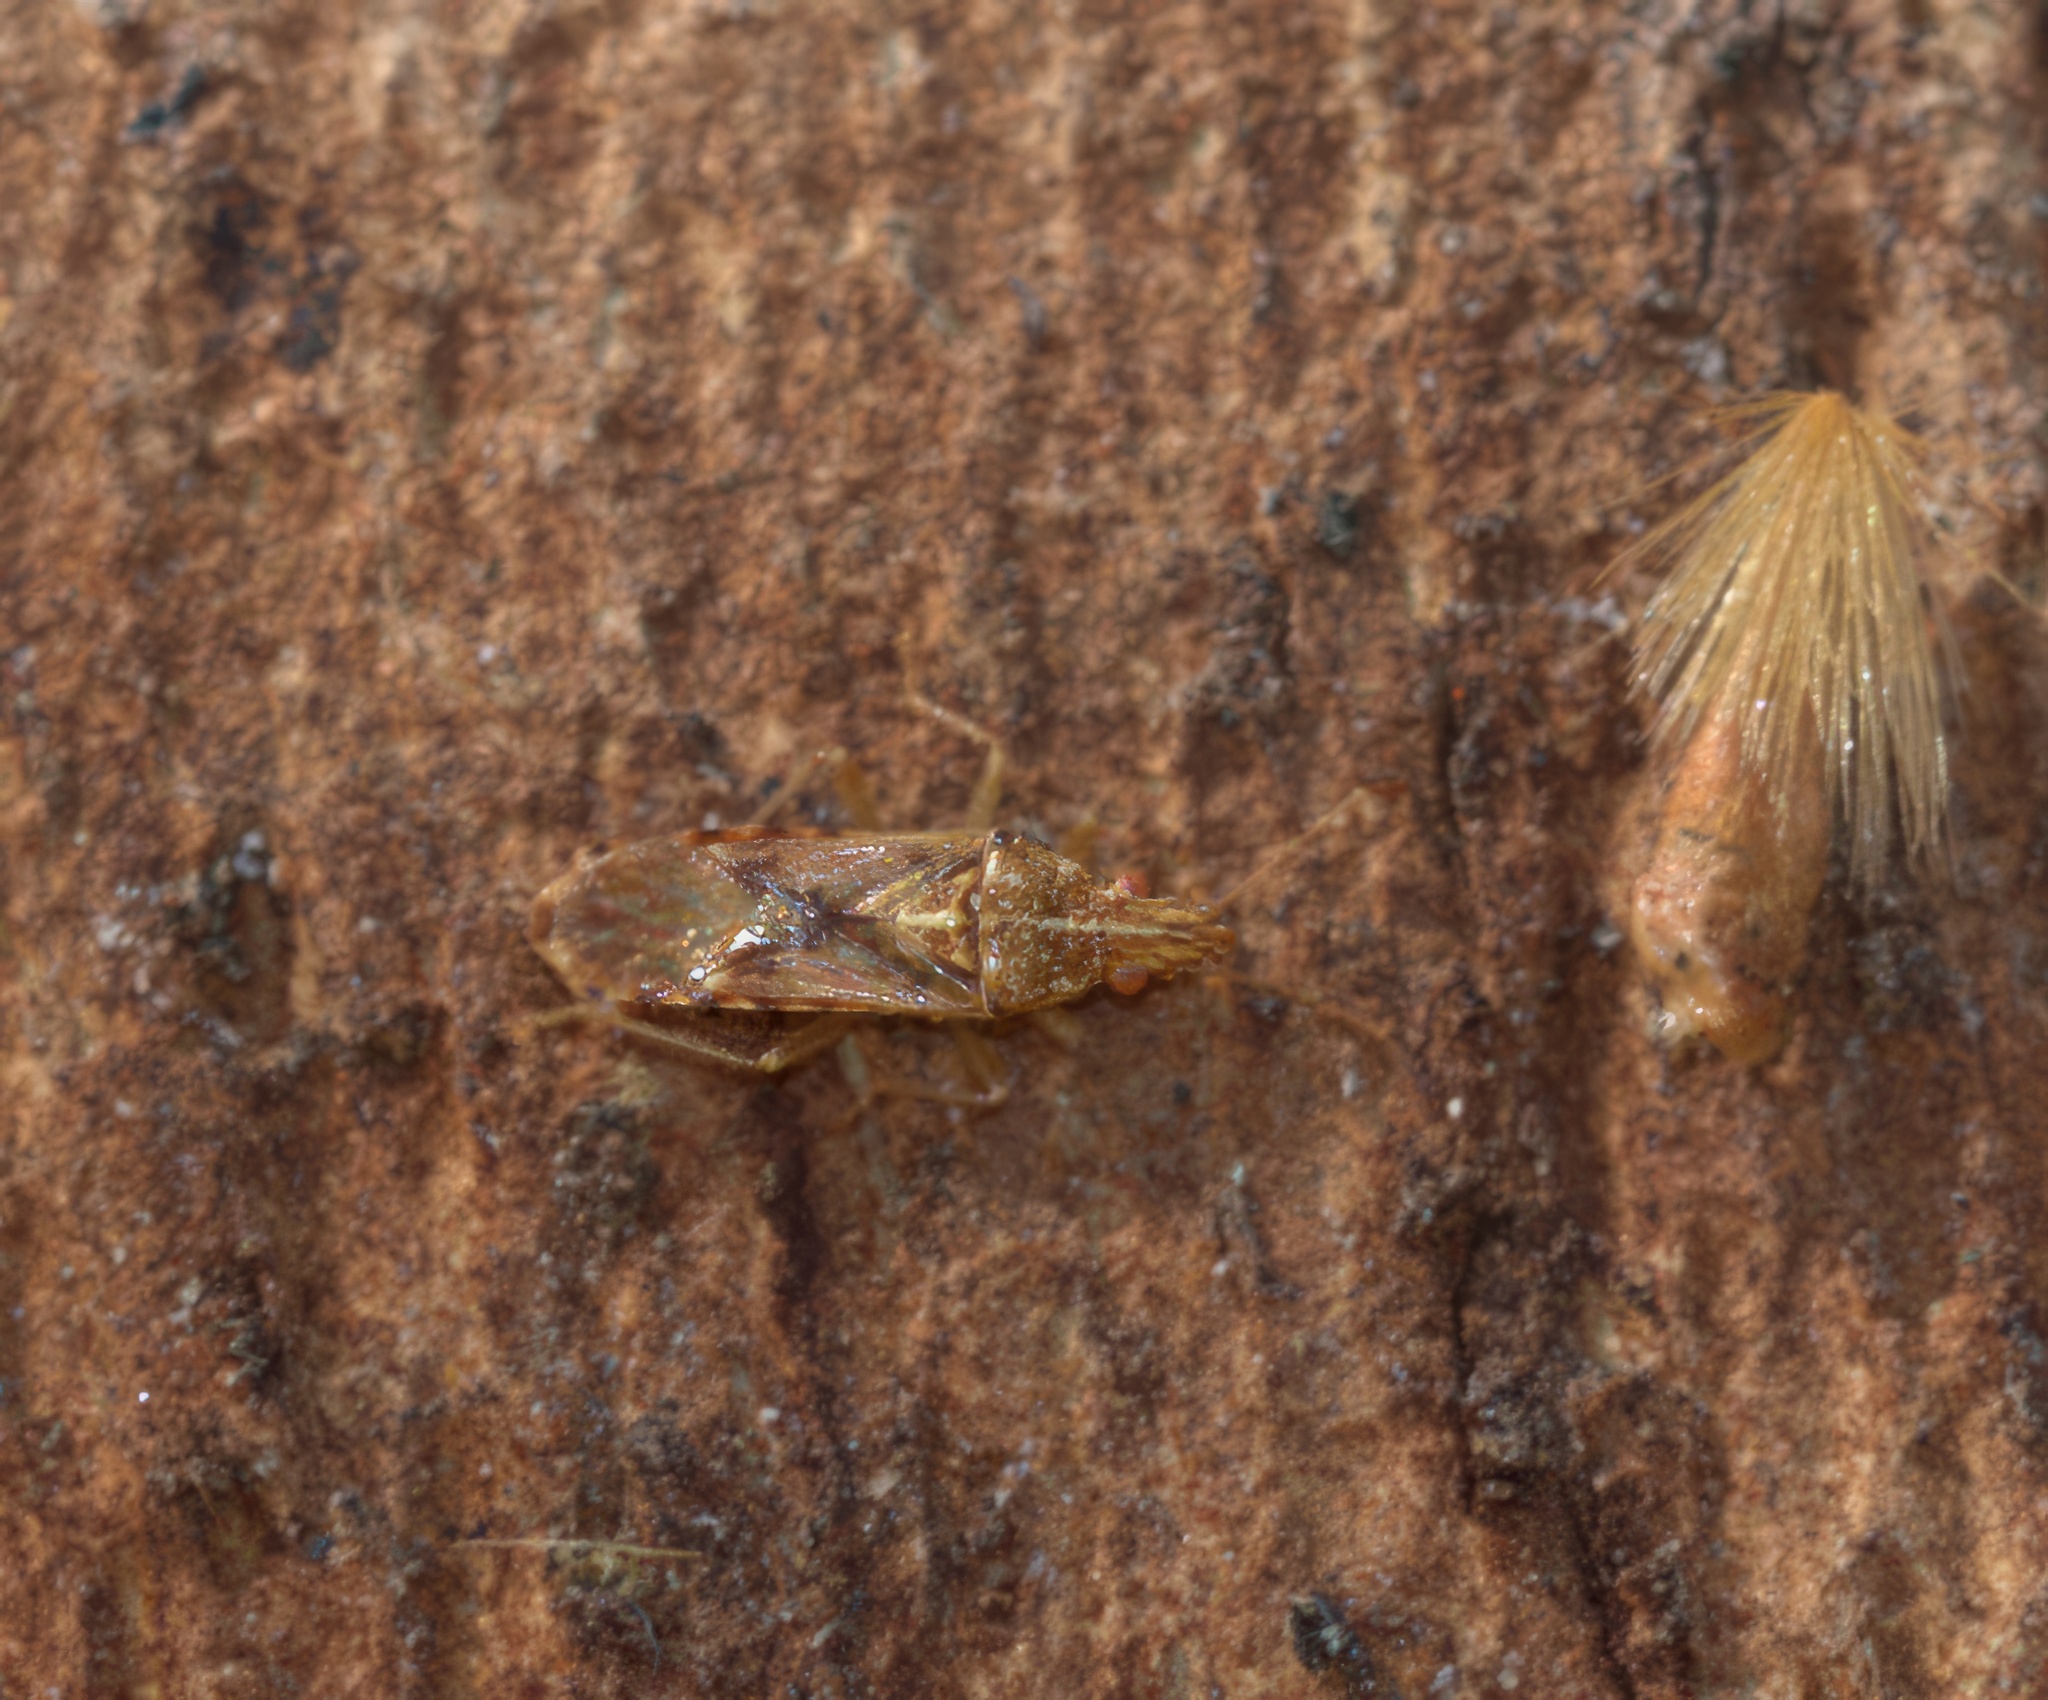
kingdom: Animalia
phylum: Arthropoda
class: Insecta
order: Hemiptera
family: Lygaeidae
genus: Belonochilus
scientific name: Belonochilus numenius
